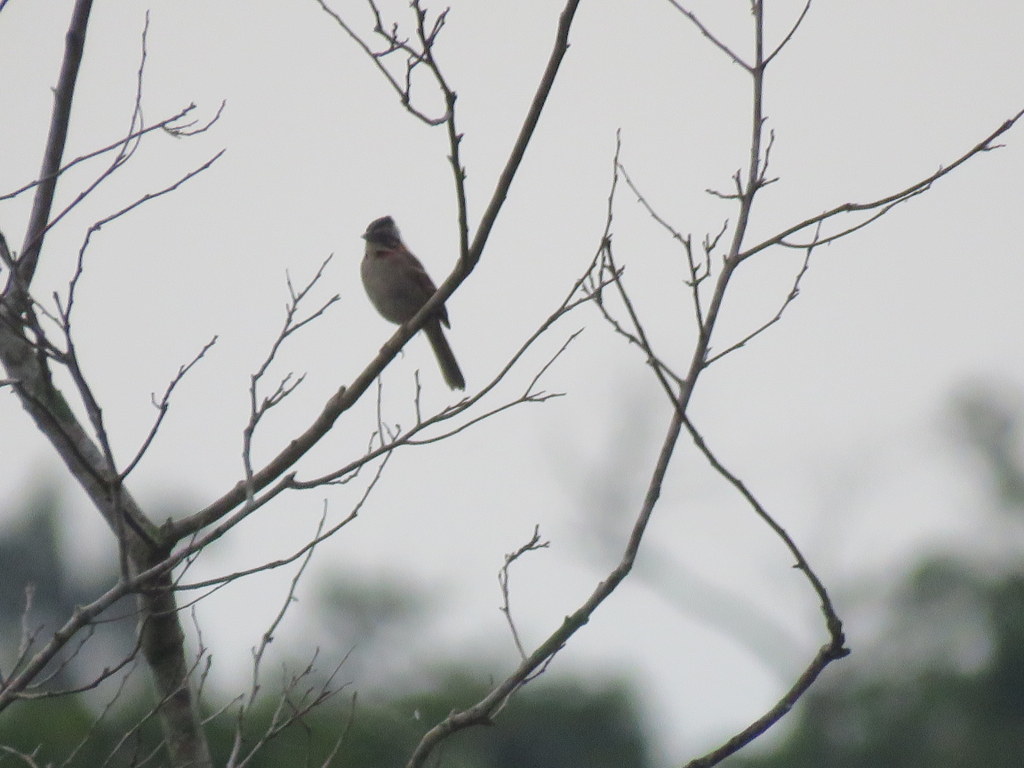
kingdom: Animalia
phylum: Chordata
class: Aves
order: Passeriformes
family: Passerellidae
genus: Zonotrichia
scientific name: Zonotrichia capensis
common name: Rufous-collared sparrow
